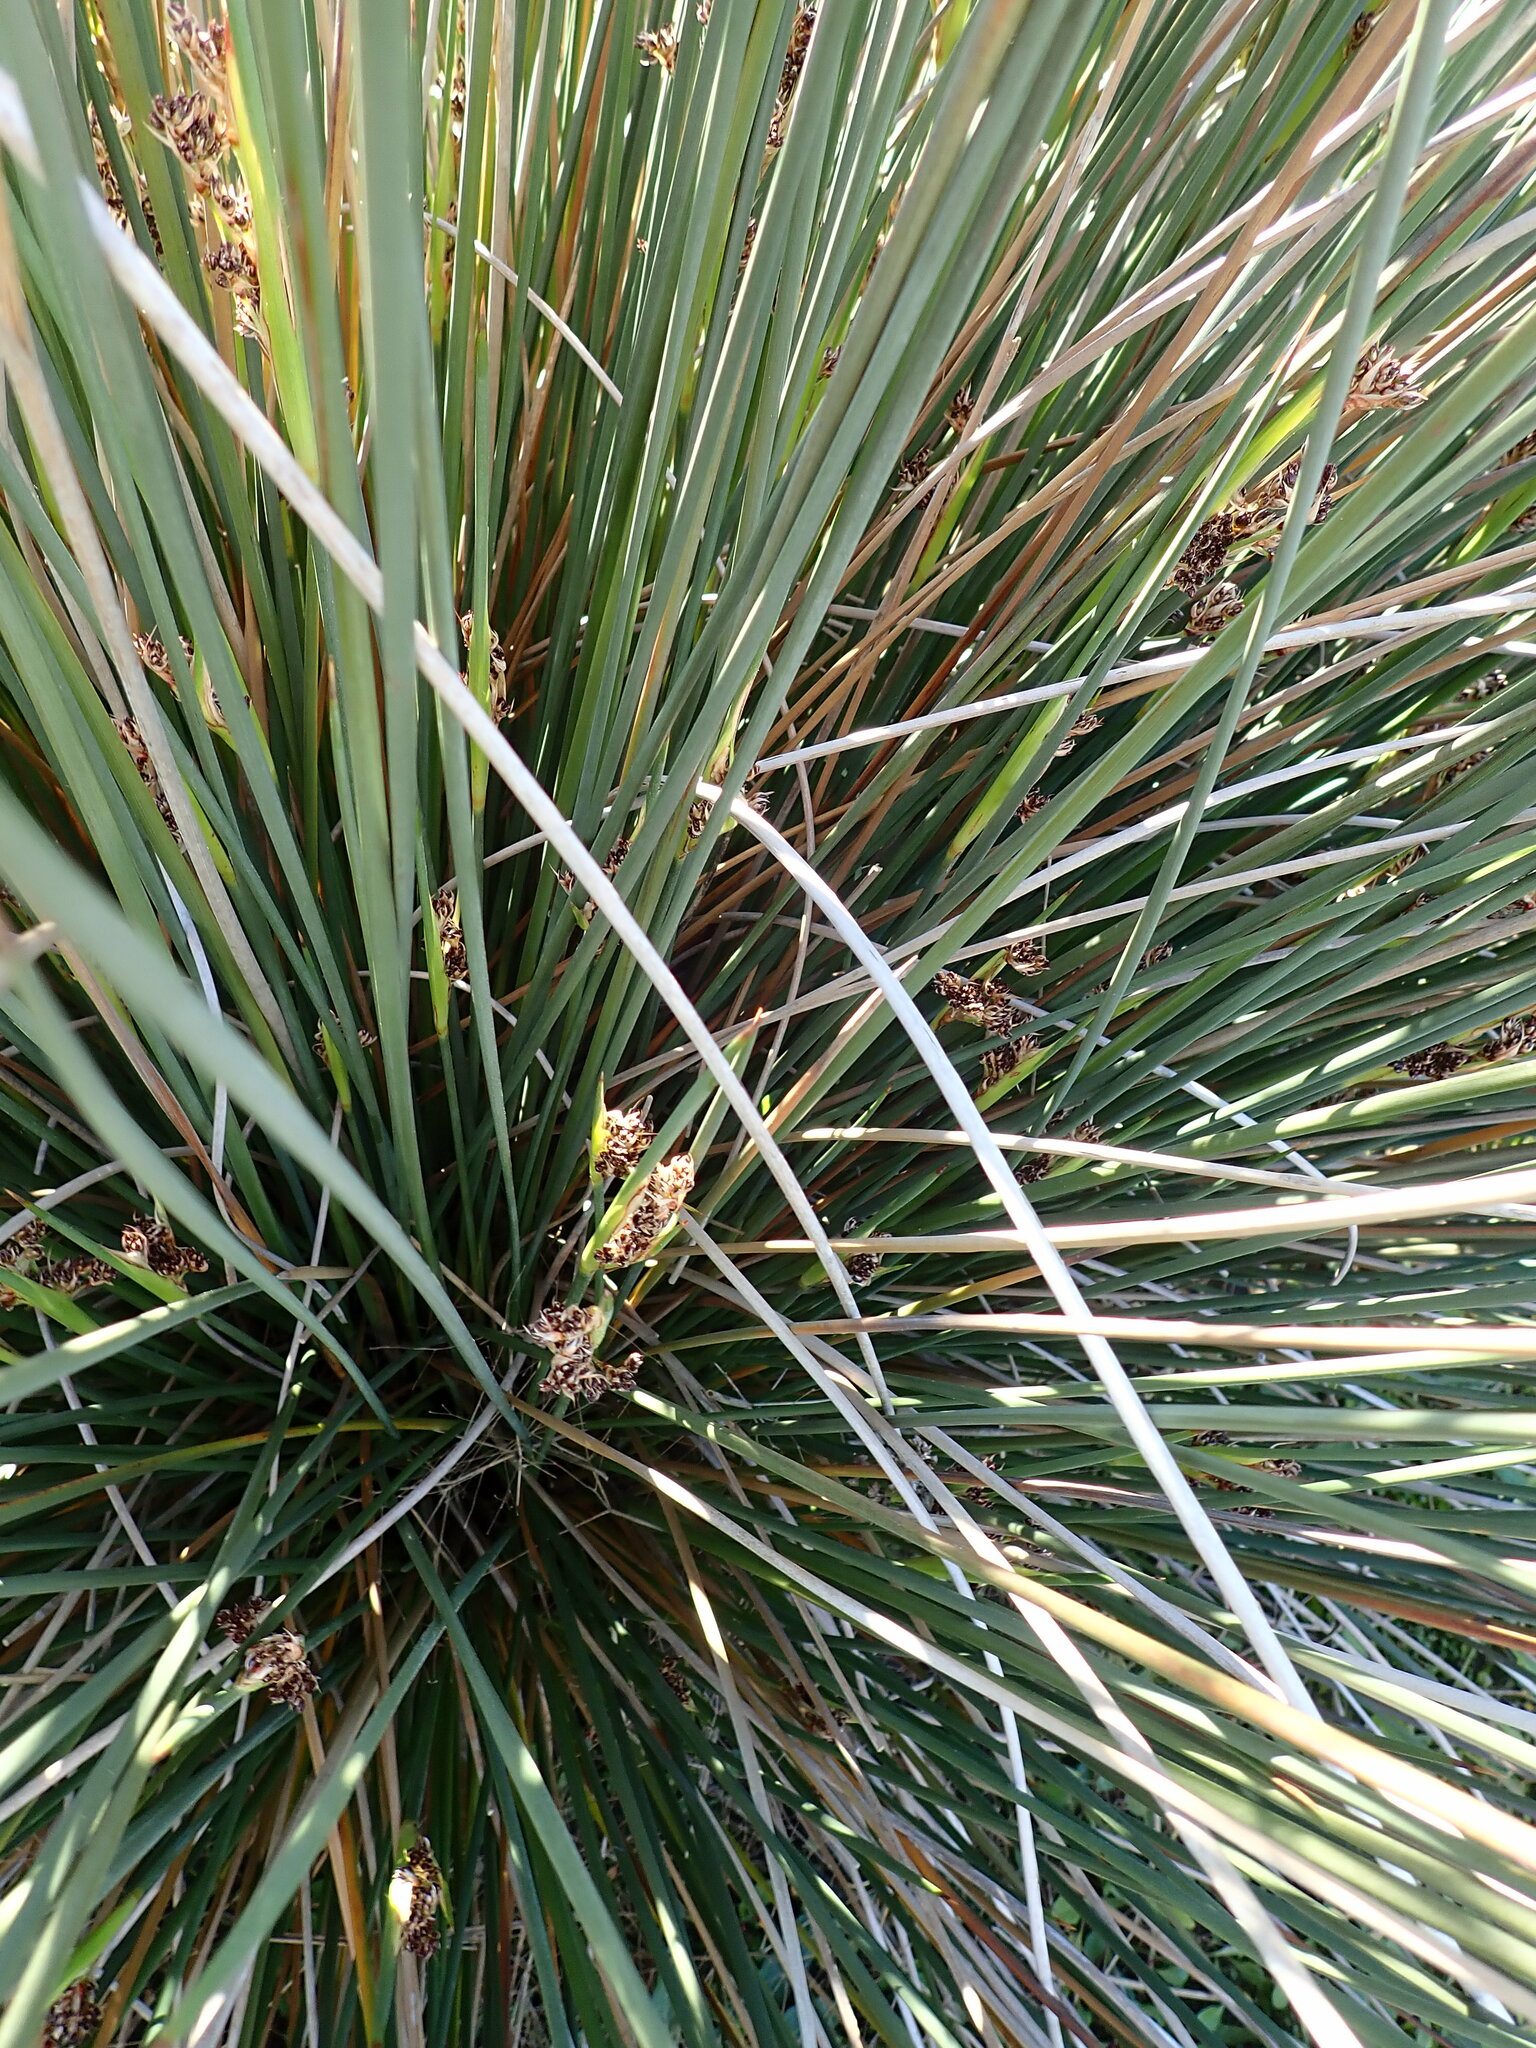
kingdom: Plantae
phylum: Tracheophyta
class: Liliopsida
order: Poales
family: Juncaceae
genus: Juncus
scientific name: Juncus acutus
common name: Sharp rush
